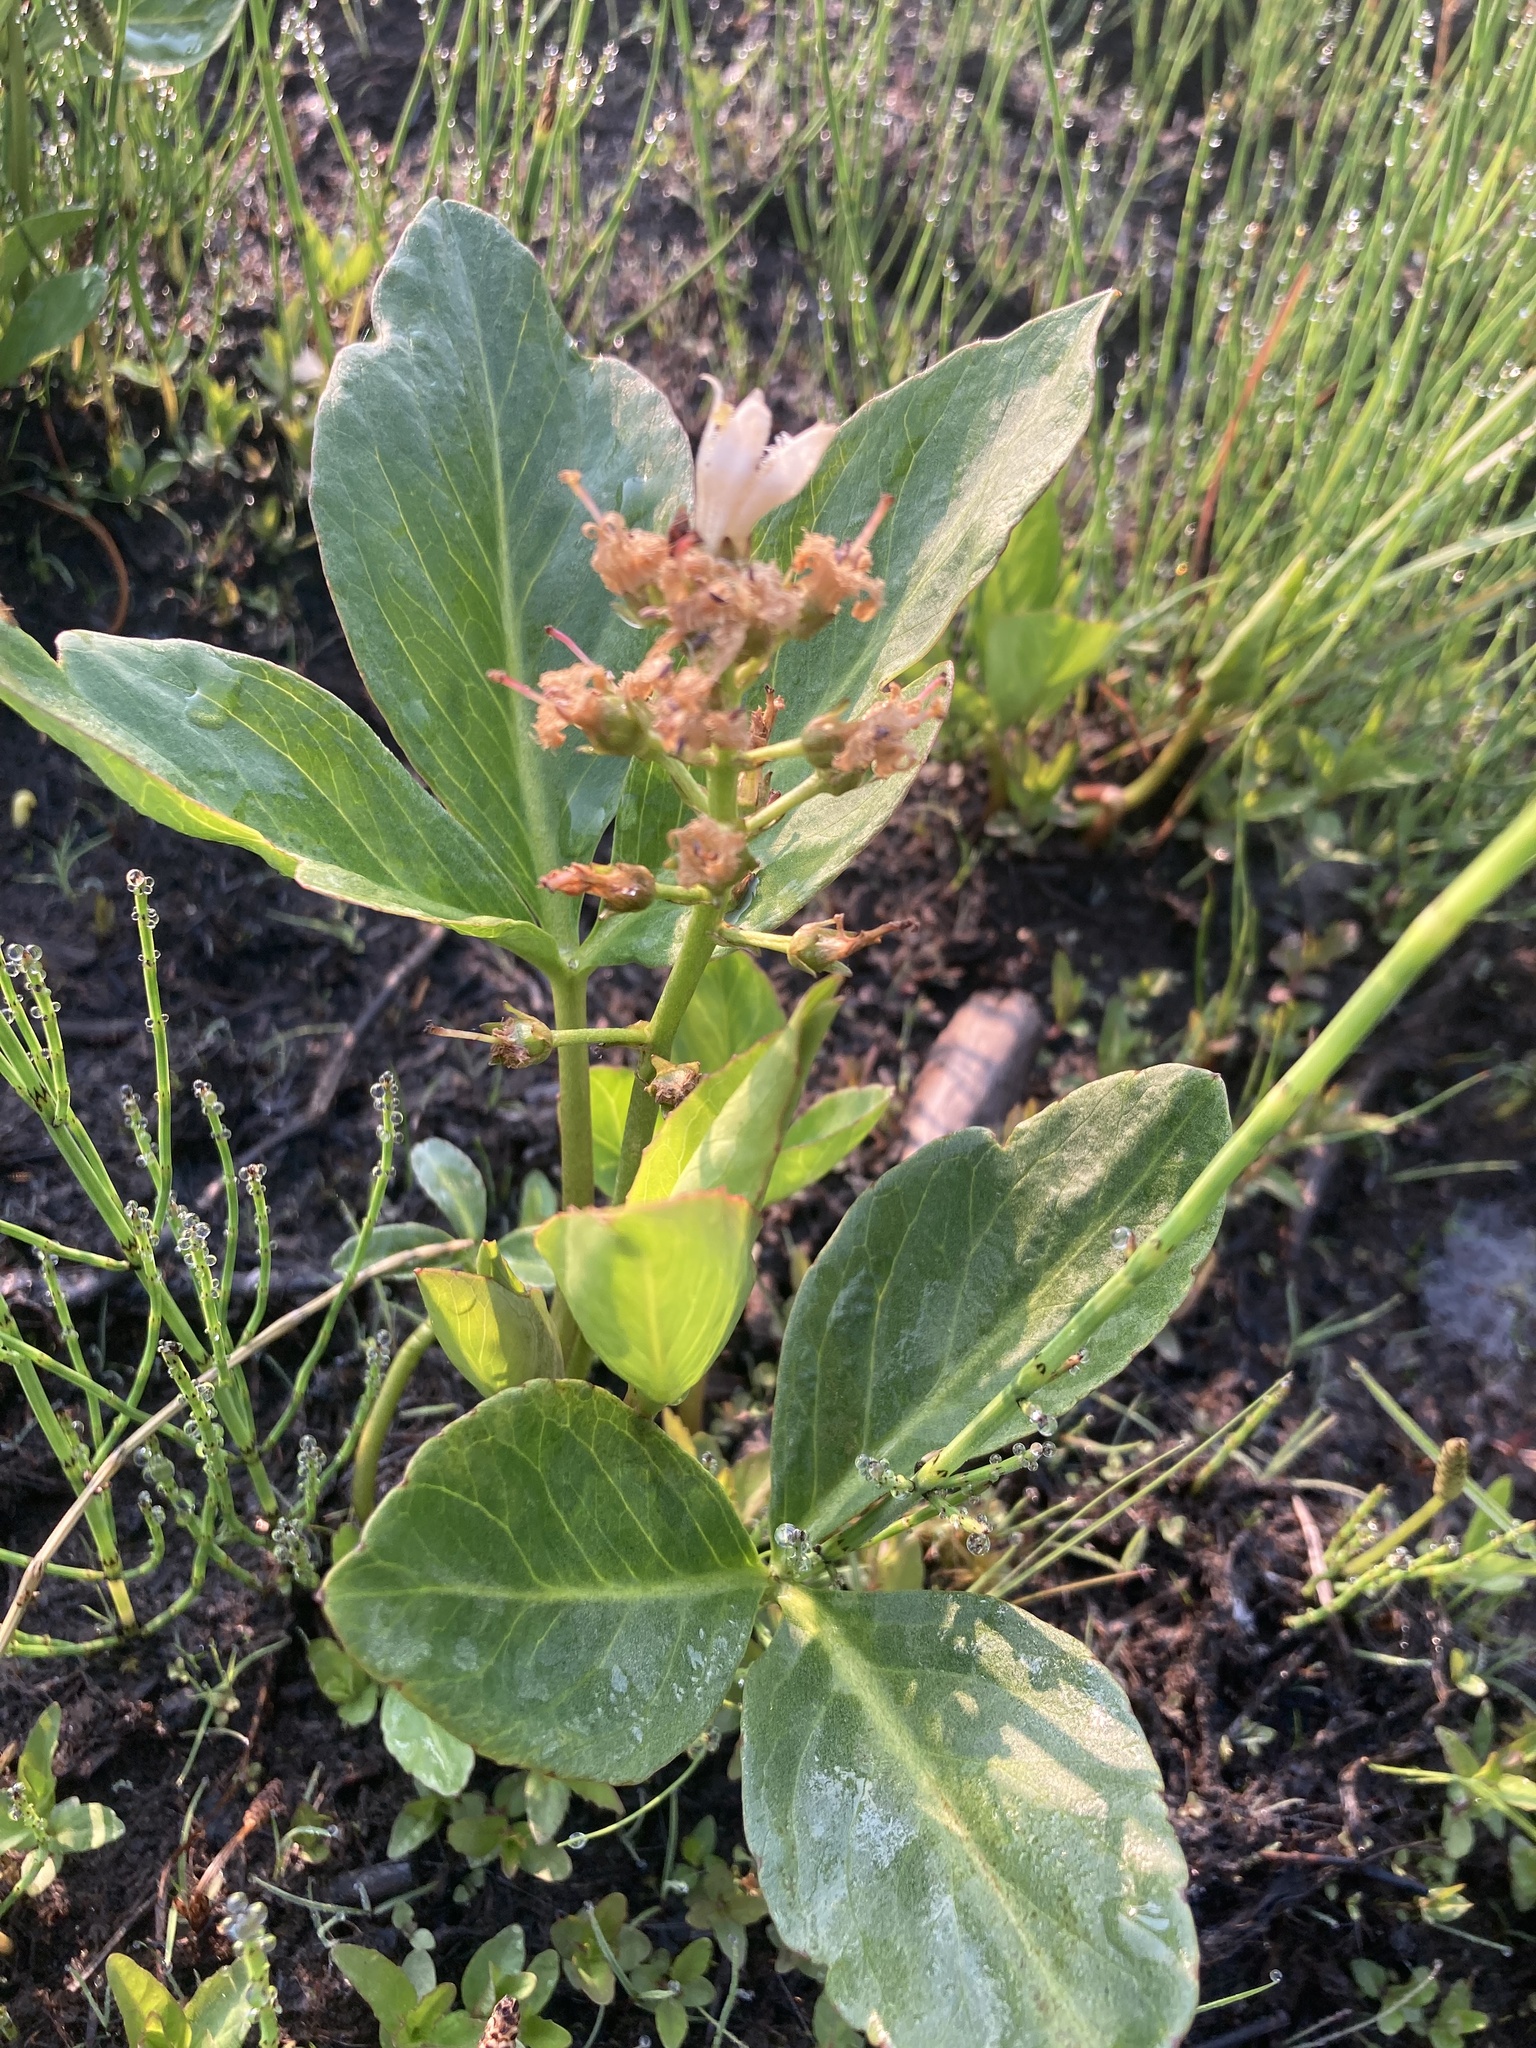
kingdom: Plantae
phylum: Tracheophyta
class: Magnoliopsida
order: Asterales
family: Menyanthaceae
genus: Menyanthes
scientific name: Menyanthes trifoliata
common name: Bogbean
